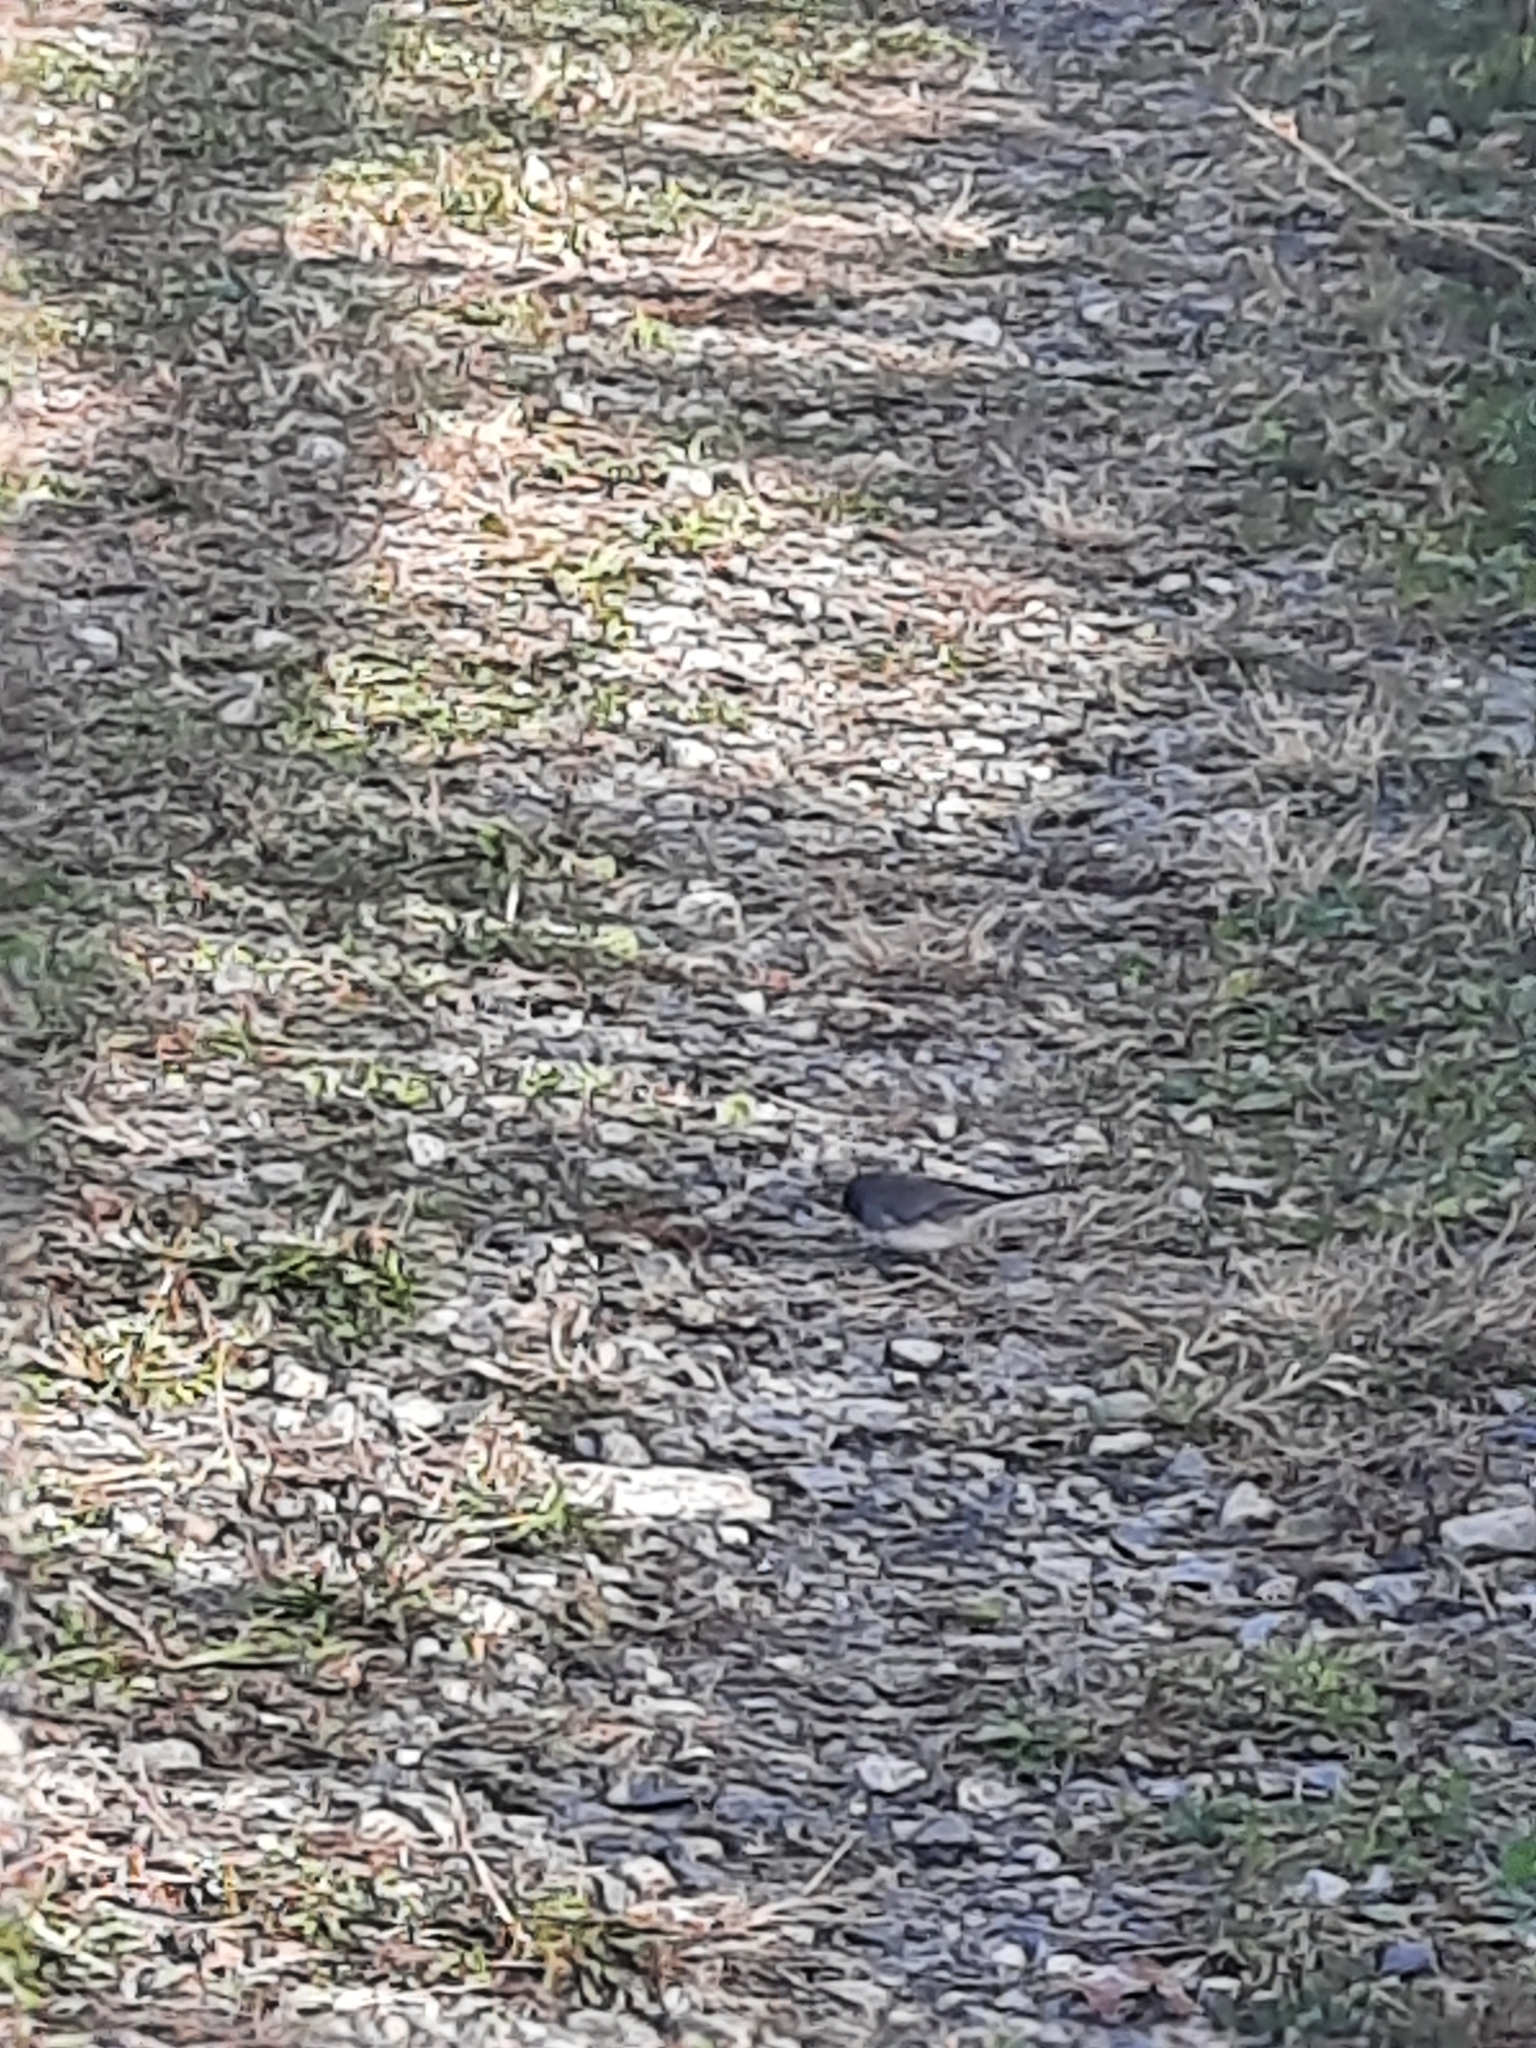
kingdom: Animalia
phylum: Chordata
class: Aves
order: Passeriformes
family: Passerellidae
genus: Junco
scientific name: Junco hyemalis
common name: Dark-eyed junco
